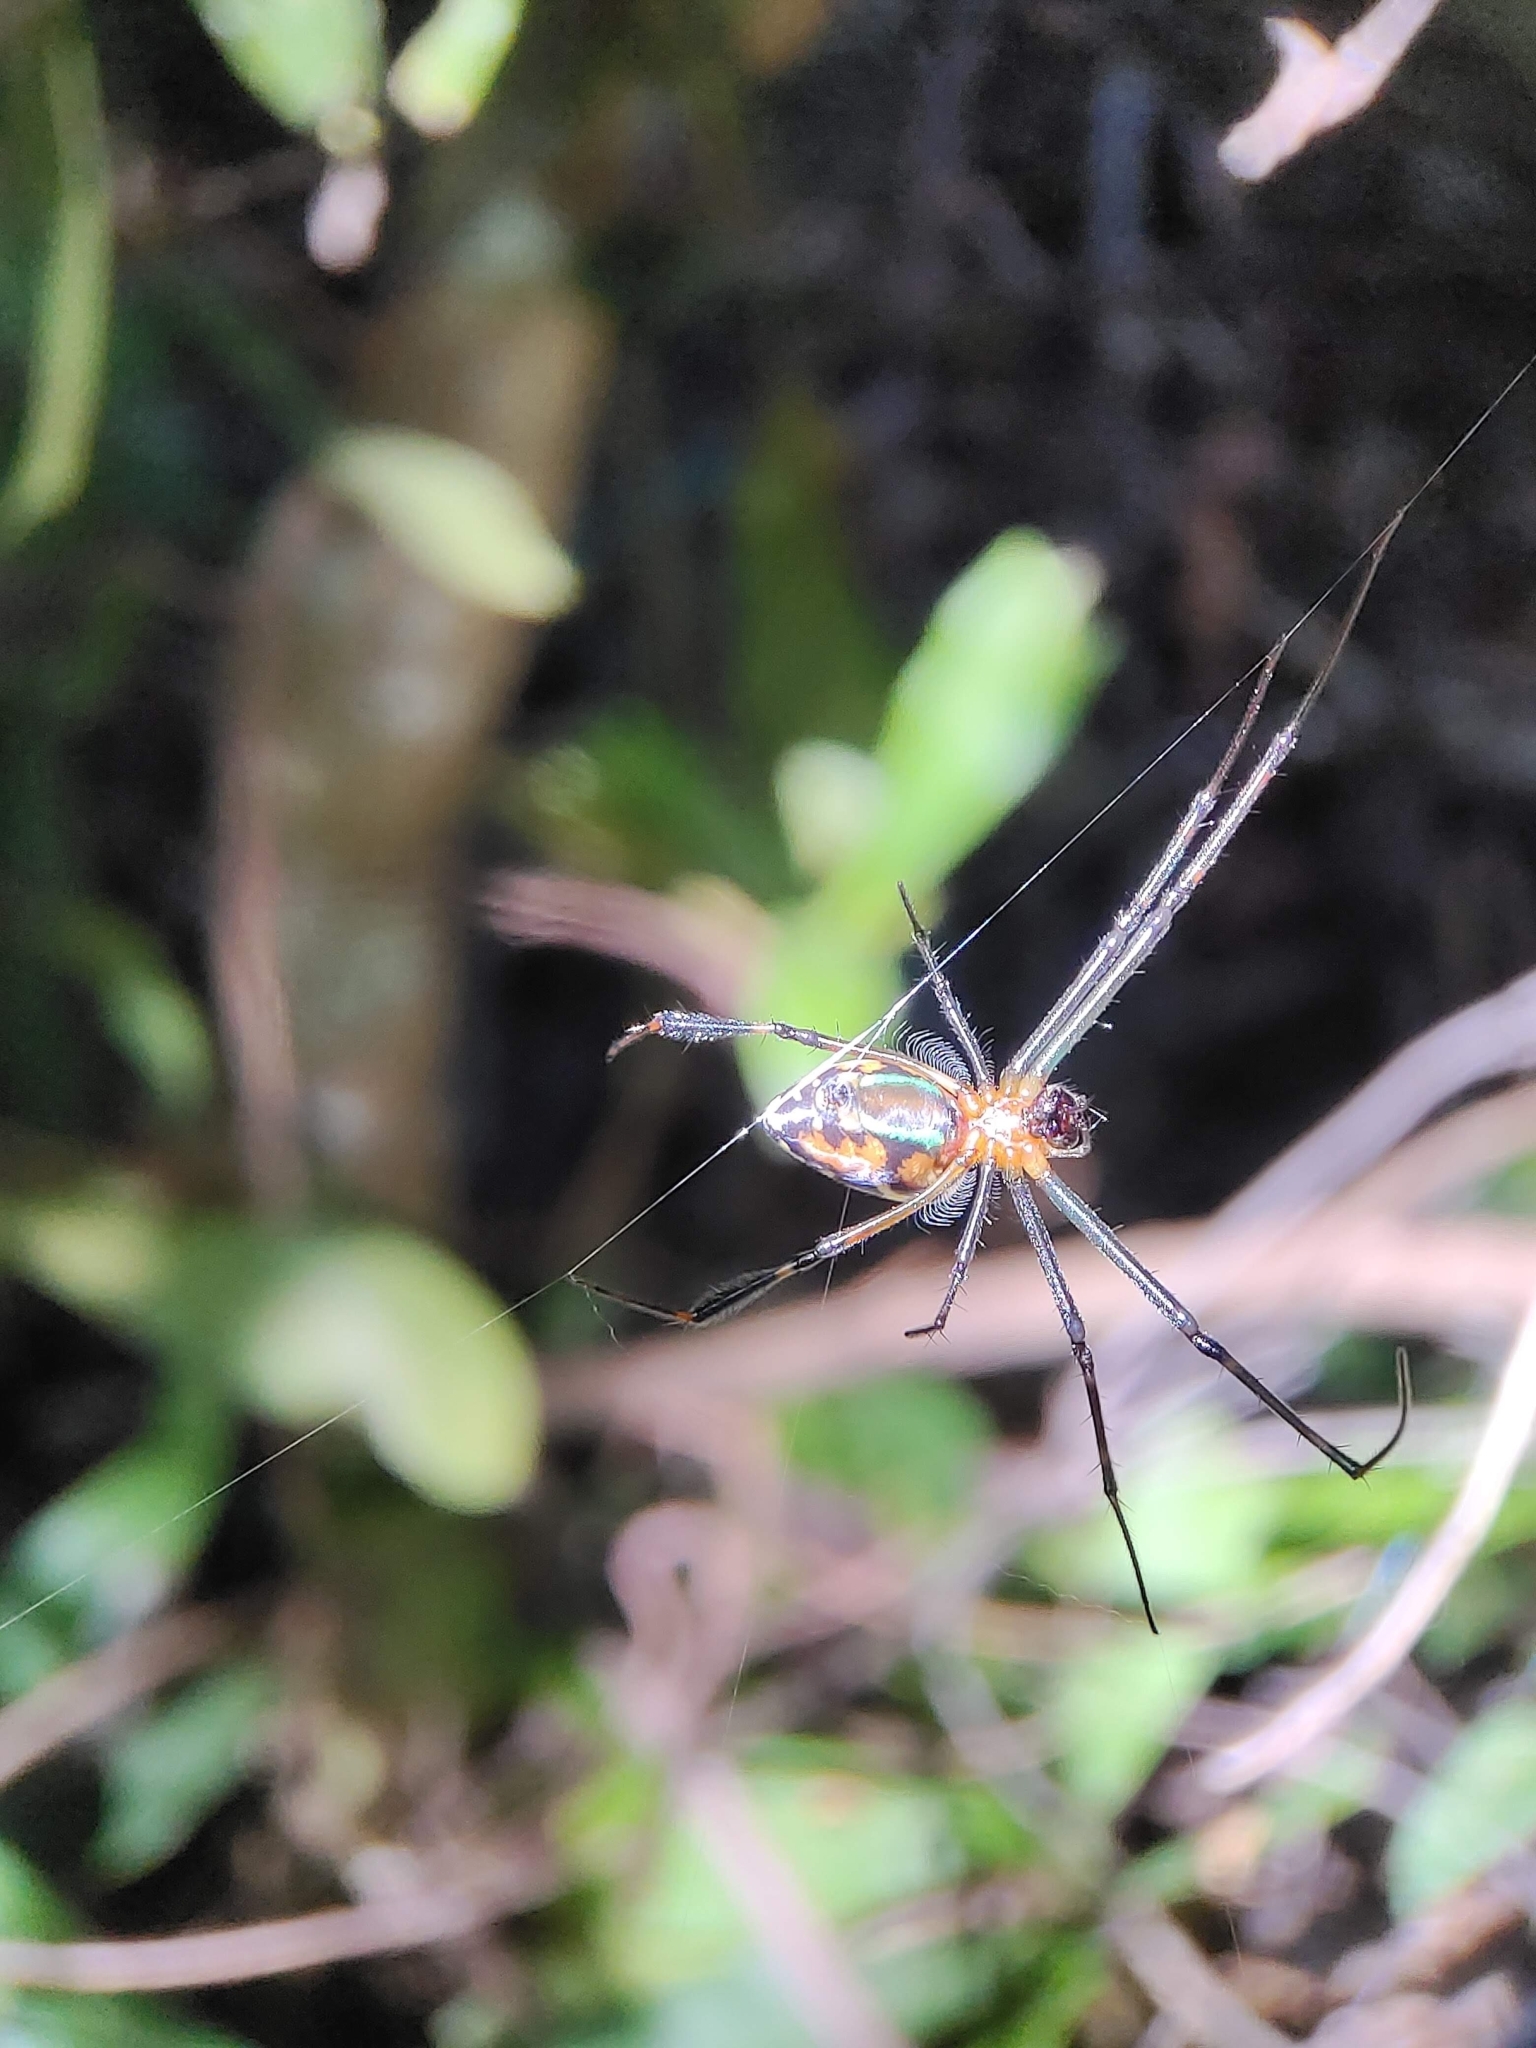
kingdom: Animalia
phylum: Arthropoda
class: Arachnida
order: Araneae
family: Tetragnathidae
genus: Leucauge
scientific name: Leucauge tessellata
